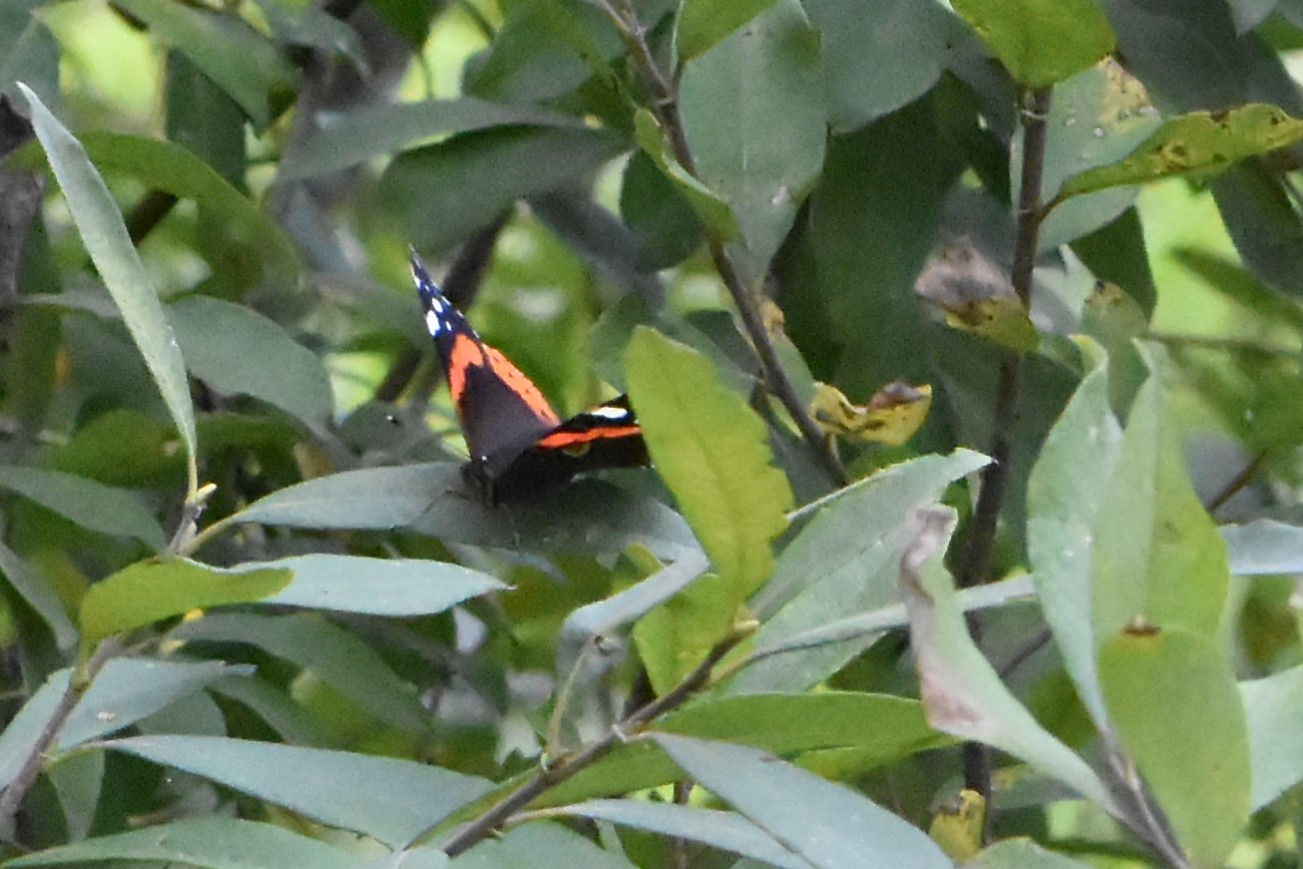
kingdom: Animalia
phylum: Arthropoda
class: Insecta
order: Lepidoptera
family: Nymphalidae
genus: Vanessa
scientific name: Vanessa atalanta
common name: Red admiral
